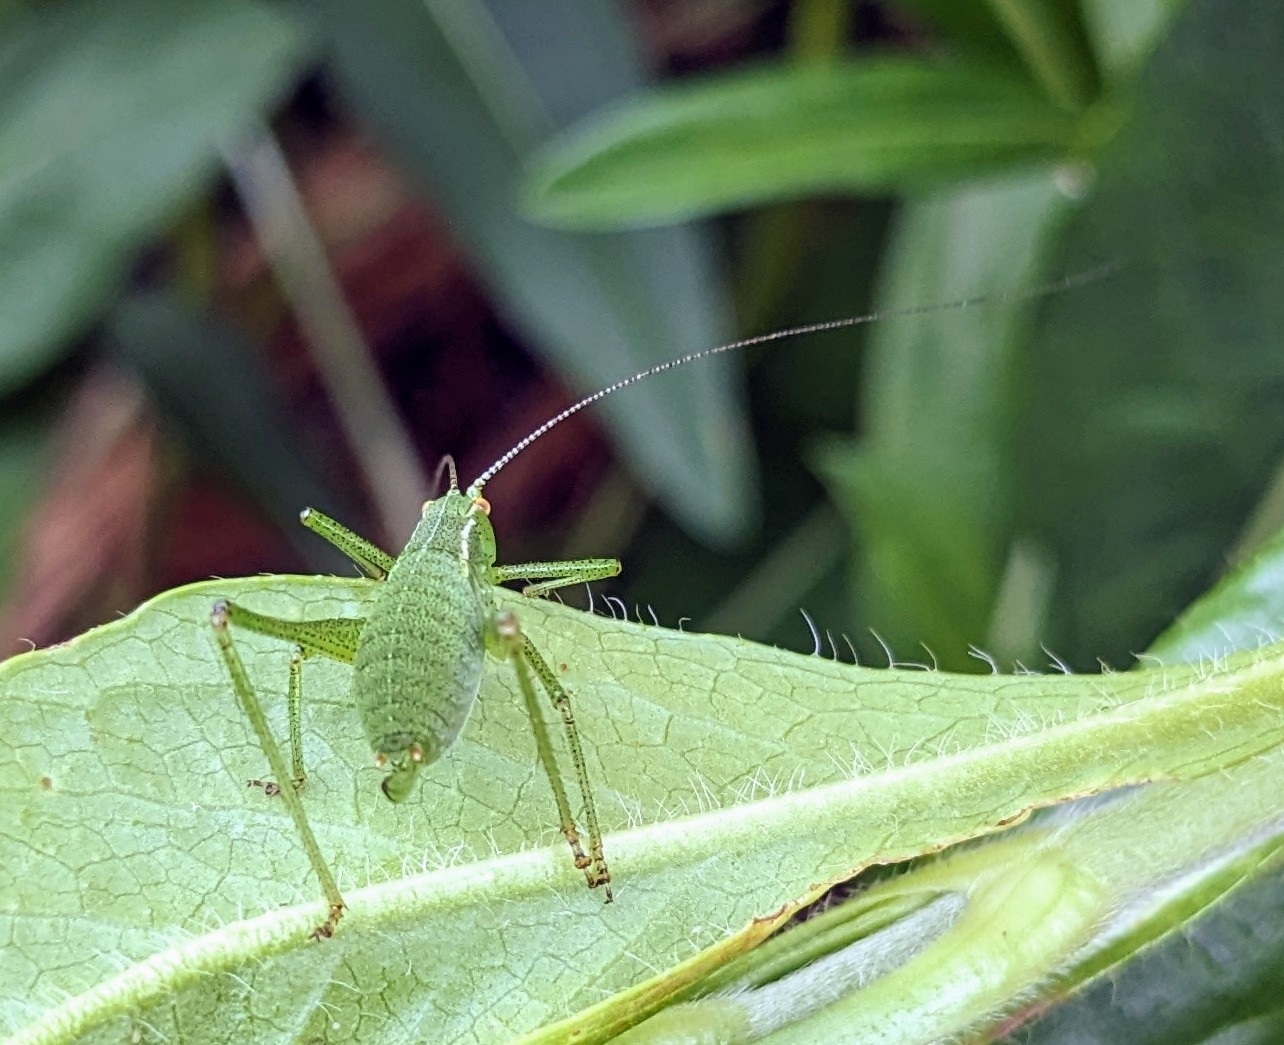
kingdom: Animalia
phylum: Arthropoda
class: Insecta
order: Orthoptera
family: Tettigoniidae
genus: Leptophyes
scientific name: Leptophyes punctatissima
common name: Speckled bush-cricket
